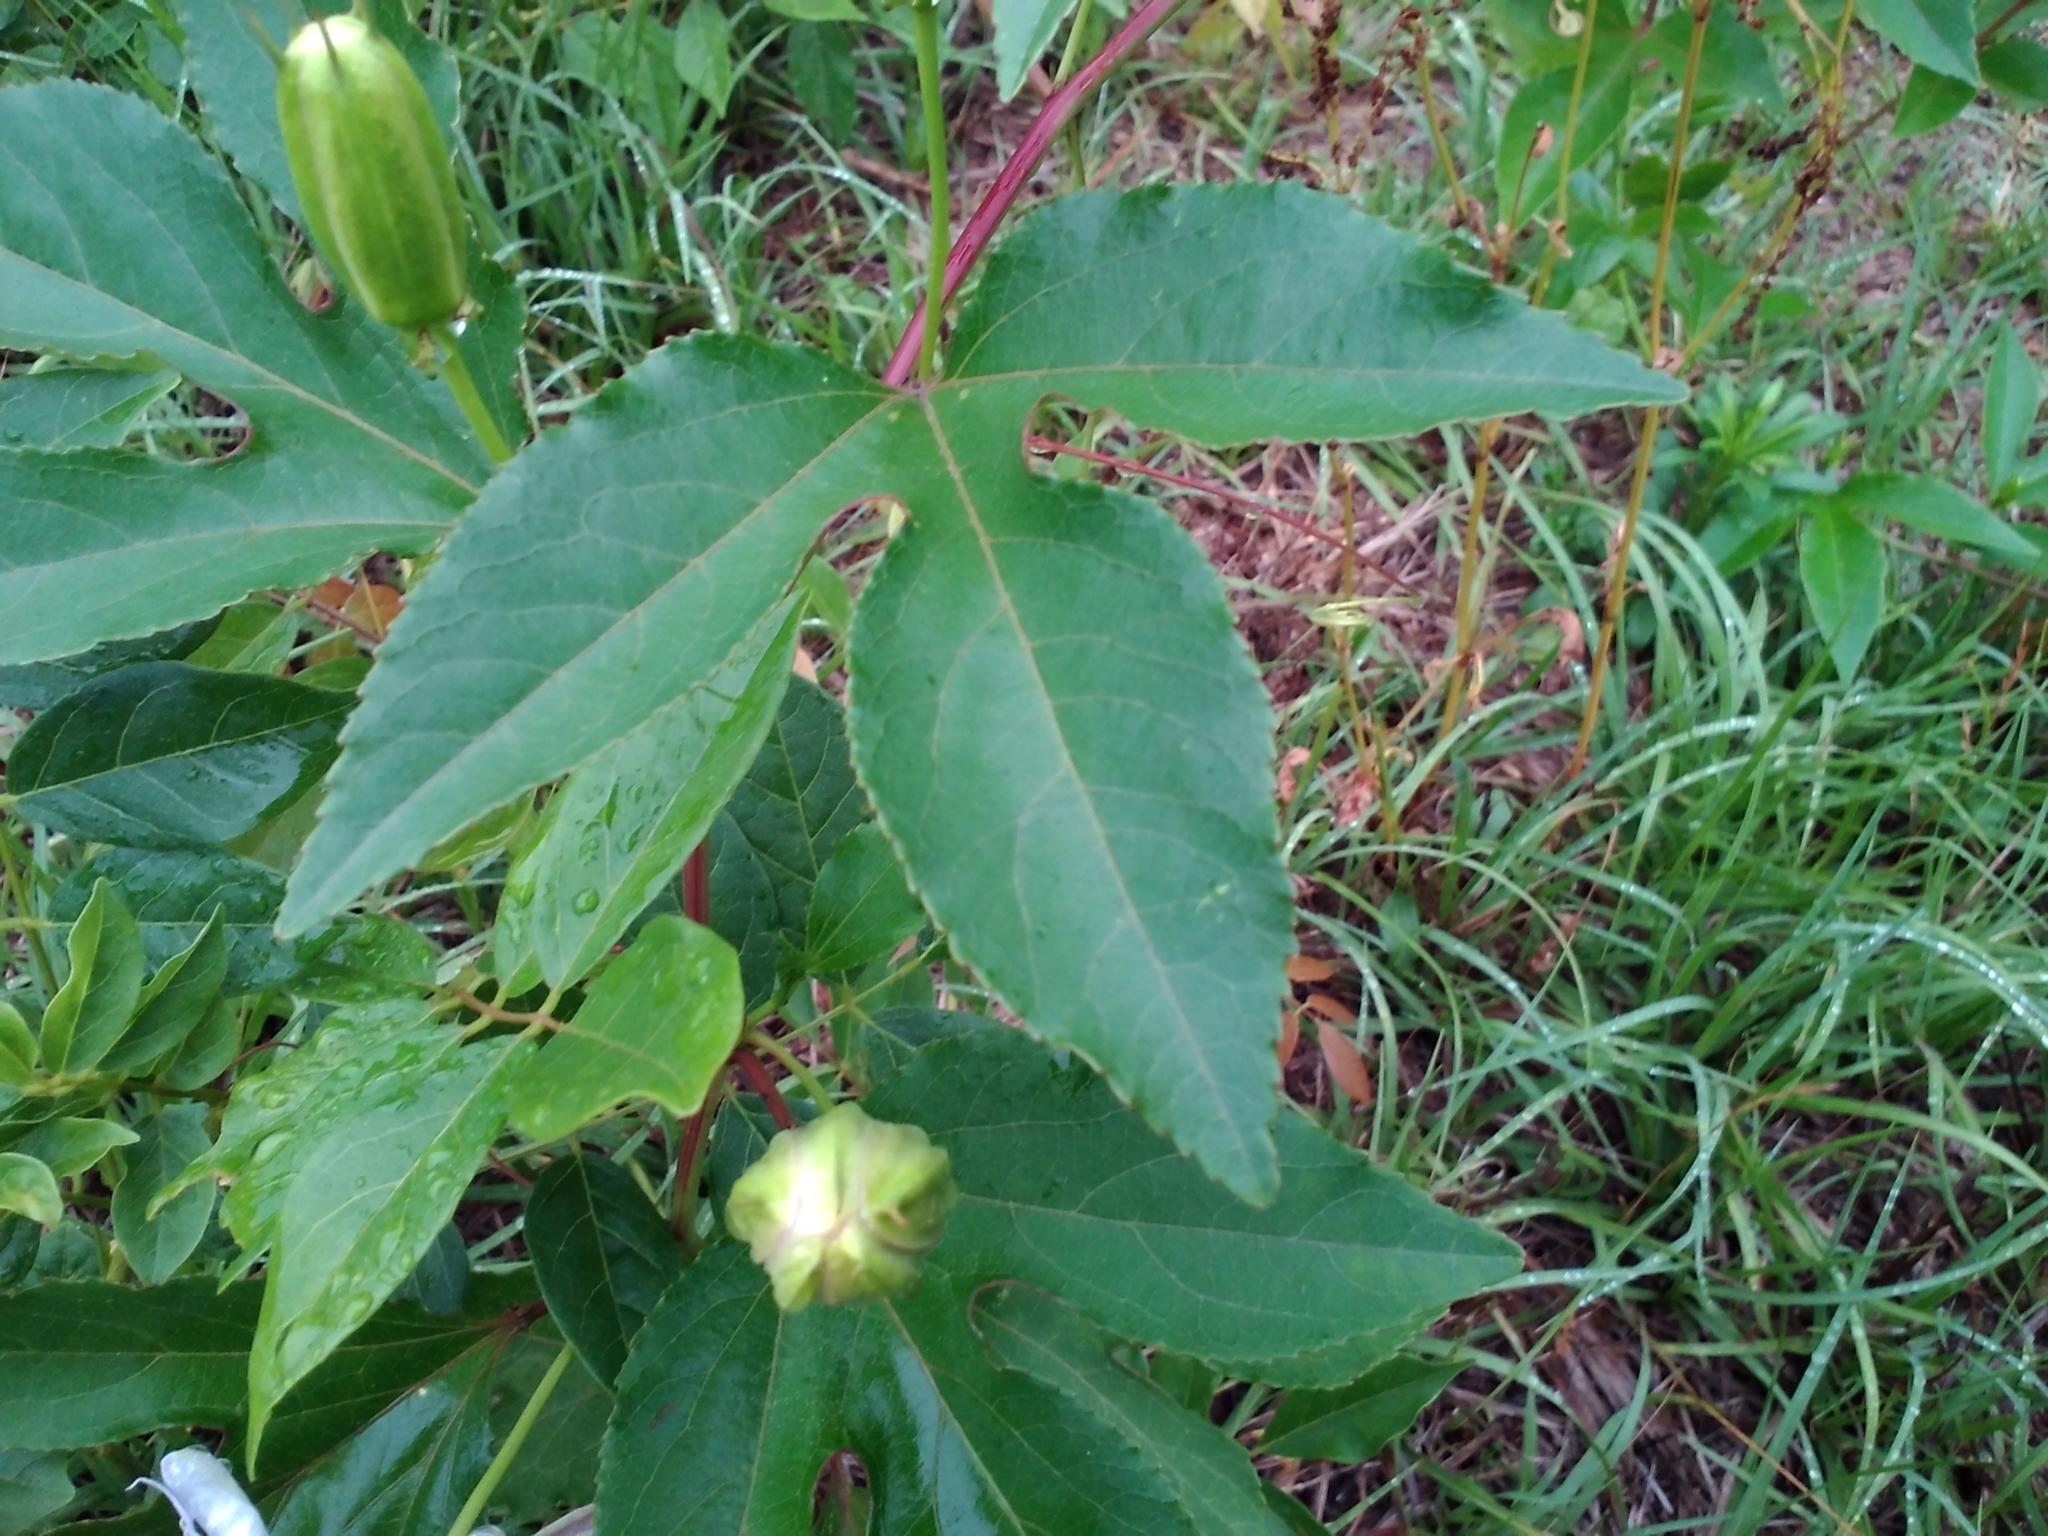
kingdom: Plantae
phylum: Tracheophyta
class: Magnoliopsida
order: Malpighiales
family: Passifloraceae
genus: Passiflora
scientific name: Passiflora incarnata
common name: Apricot-vine
